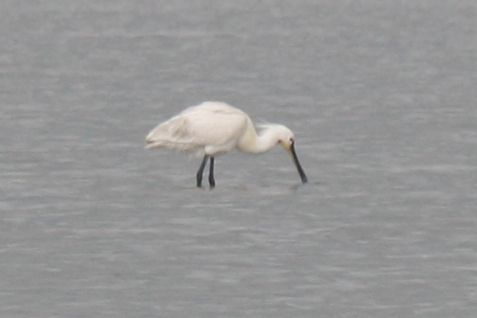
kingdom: Animalia
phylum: Chordata
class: Aves
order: Pelecaniformes
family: Threskiornithidae
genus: Platalea
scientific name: Platalea leucorodia
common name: Eurasian spoonbill
